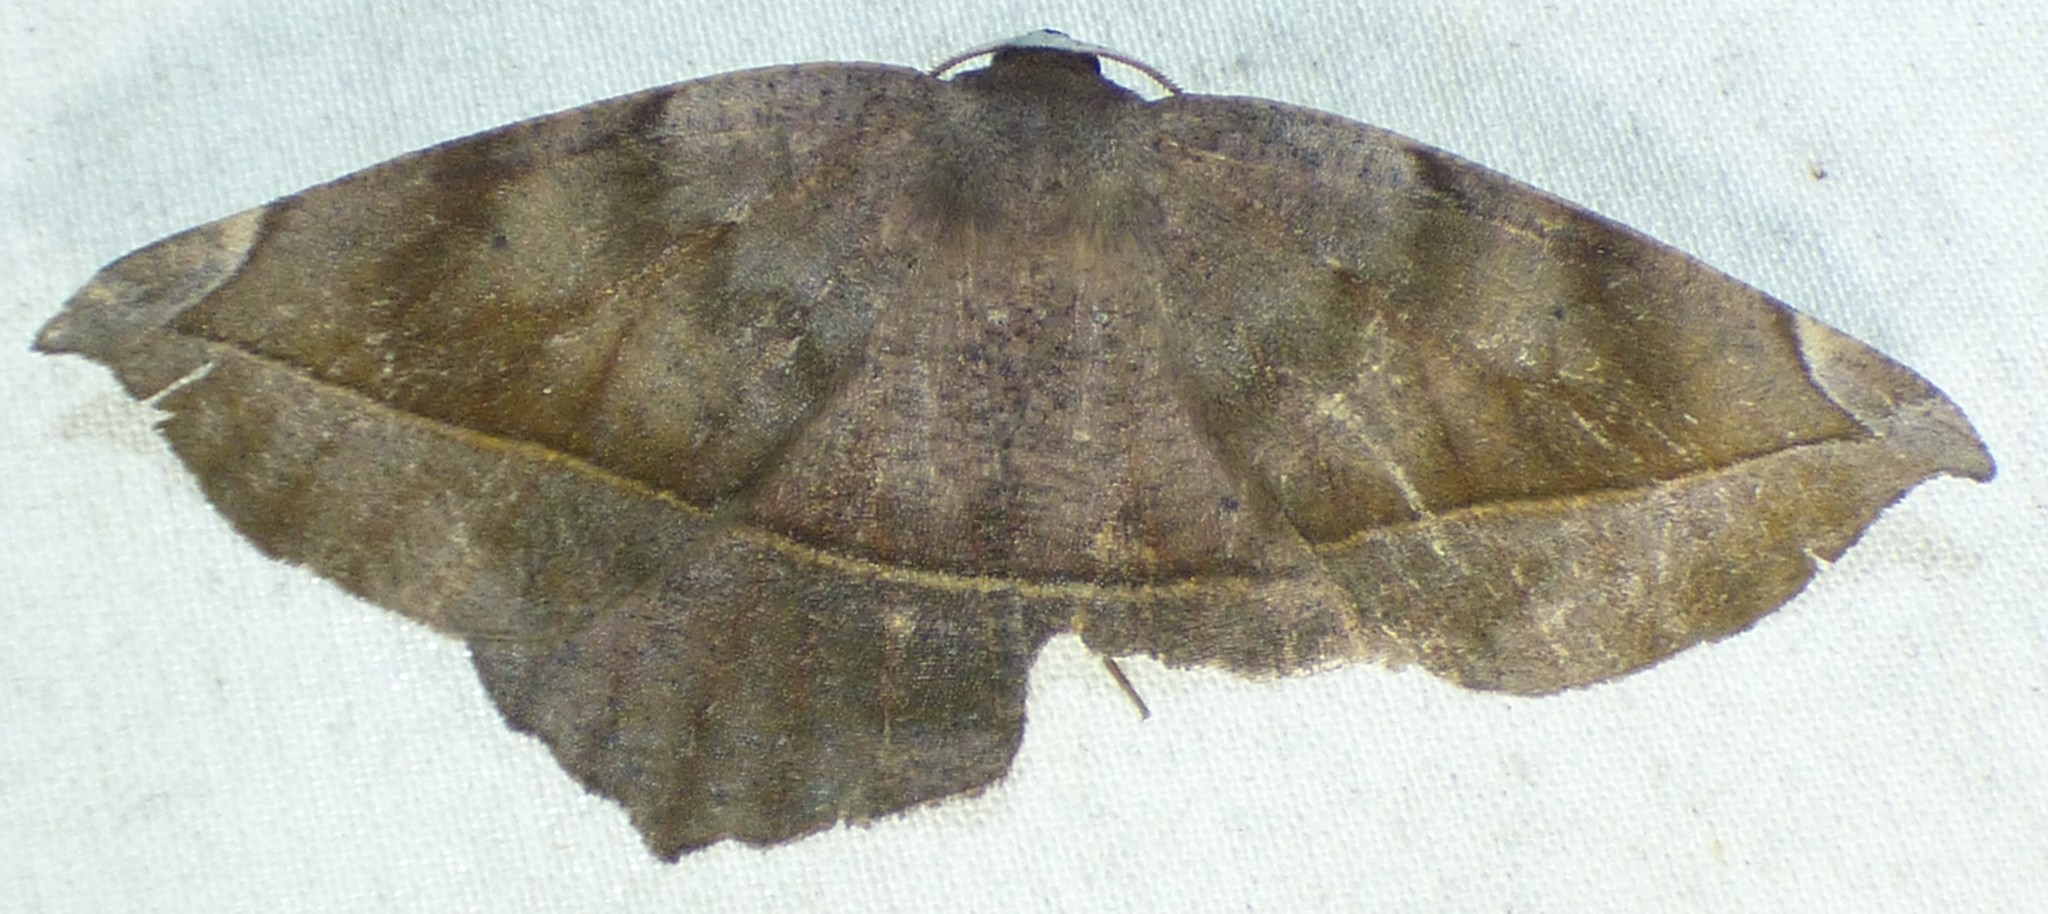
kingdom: Animalia
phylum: Arthropoda
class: Insecta
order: Lepidoptera
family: Geometridae
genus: Eutrapela
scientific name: Eutrapela clemataria
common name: Curved-toothed geometer
